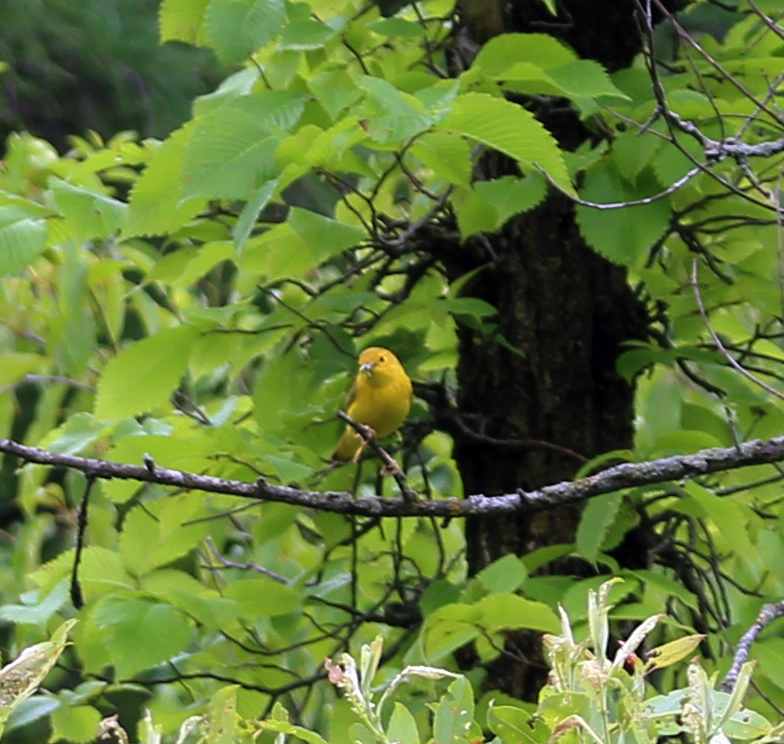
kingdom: Animalia
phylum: Chordata
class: Aves
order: Passeriformes
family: Parulidae
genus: Setophaga
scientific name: Setophaga petechia
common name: Yellow warbler
